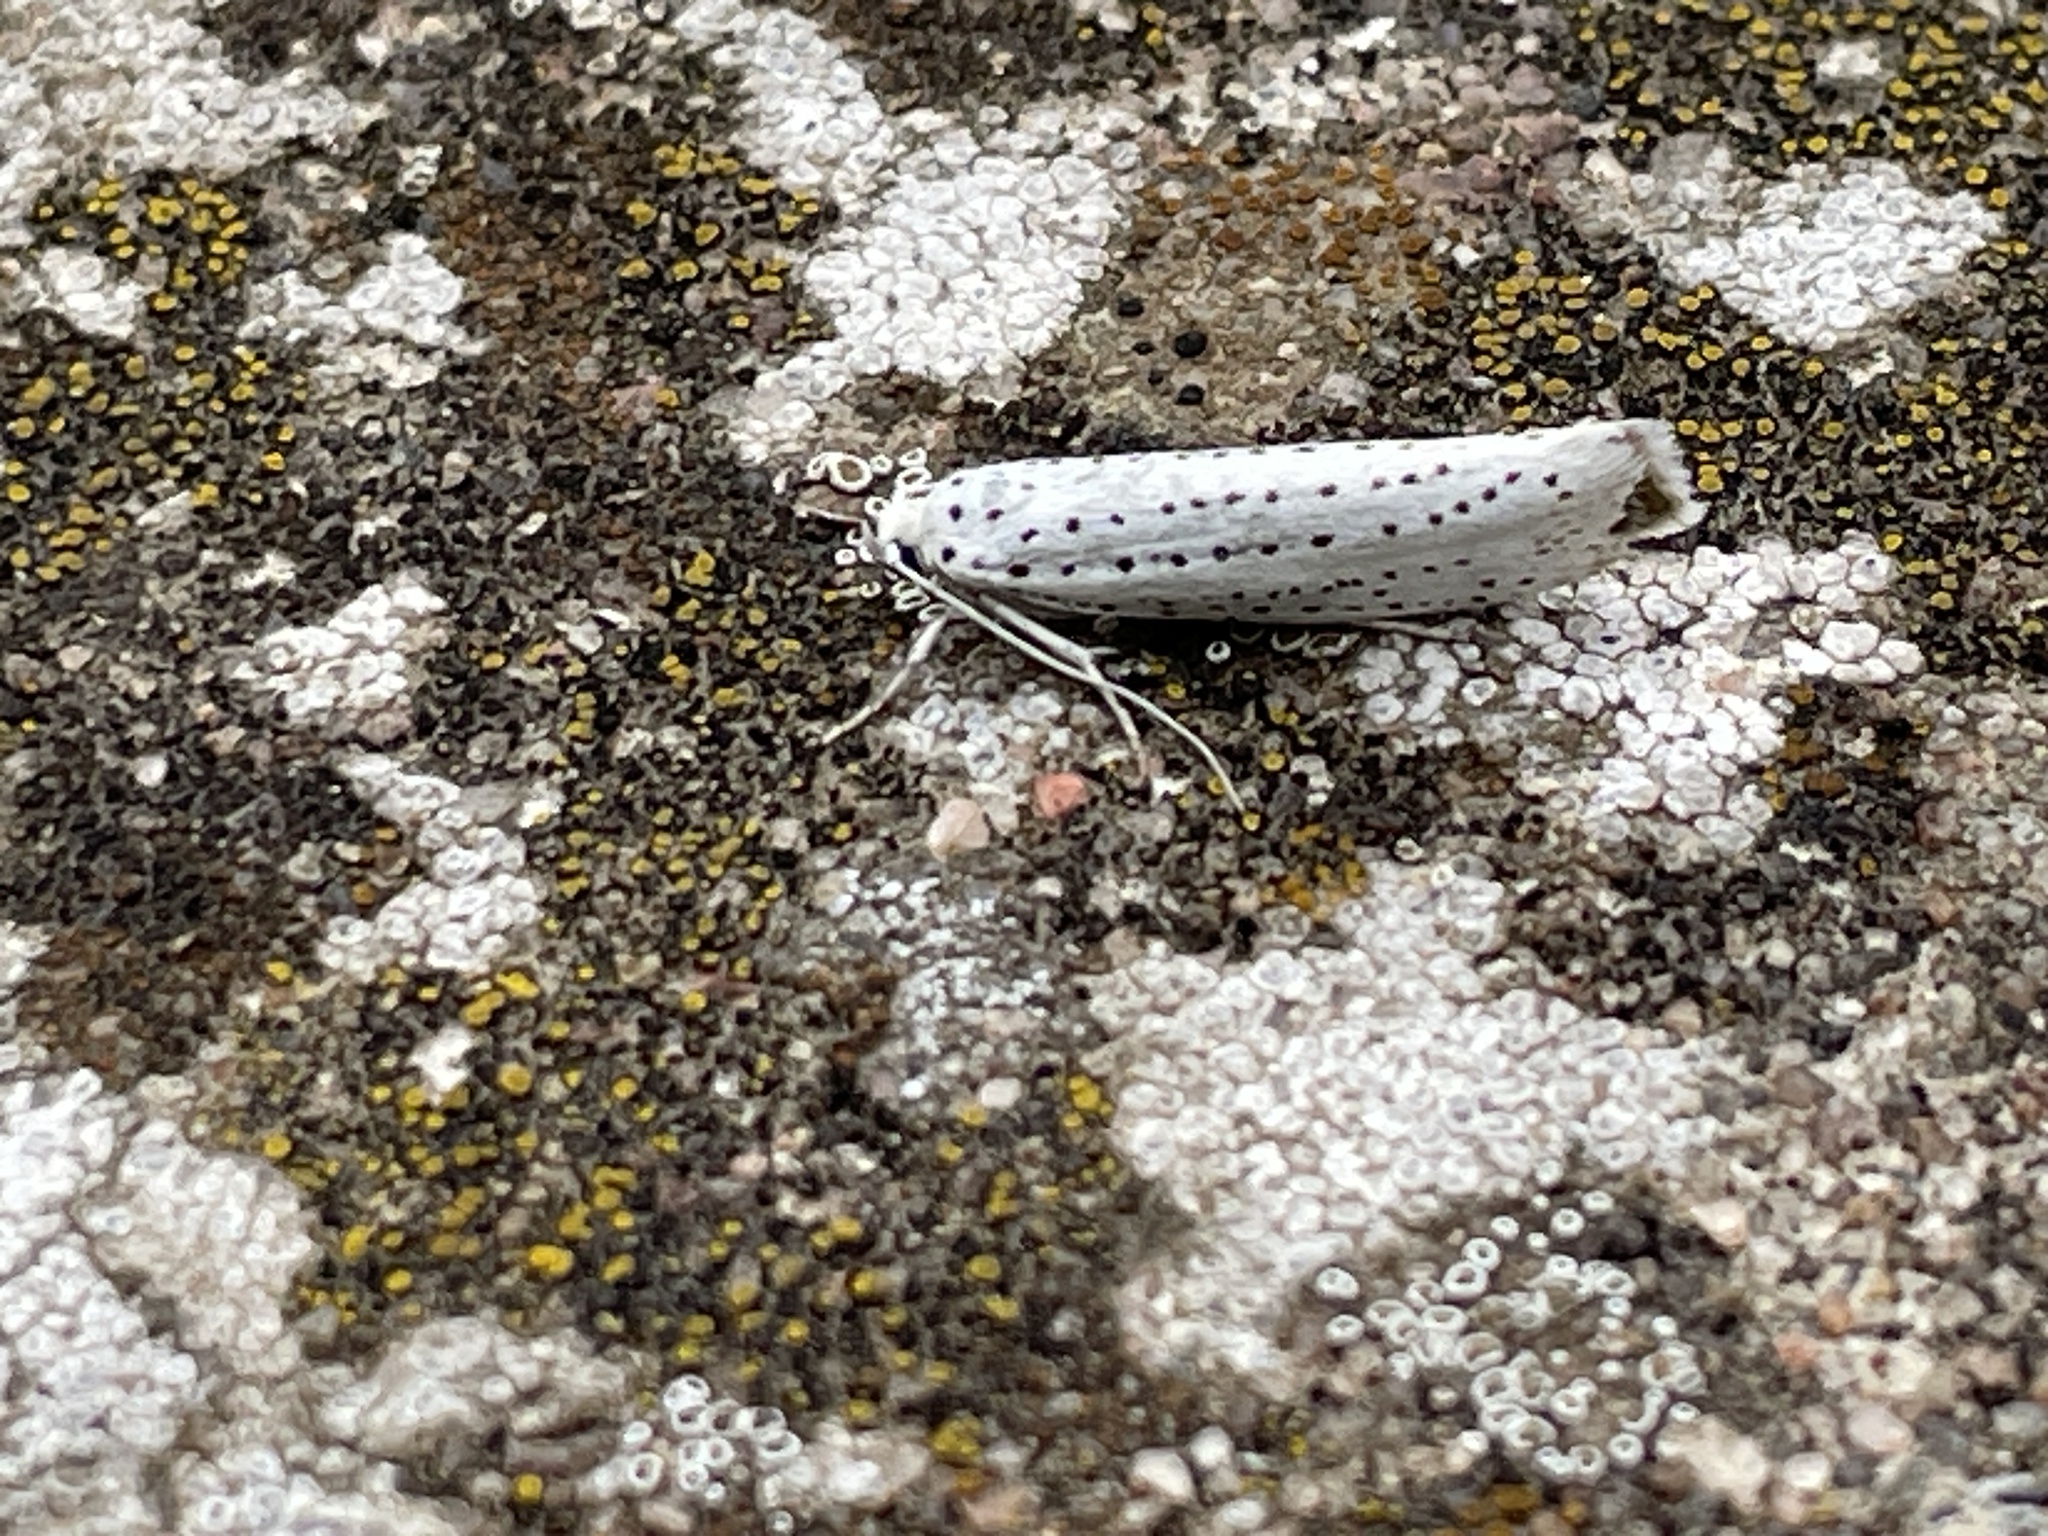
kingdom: Animalia
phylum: Arthropoda
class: Insecta
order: Lepidoptera
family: Yponomeutidae
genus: Yponomeuta
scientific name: Yponomeuta evonymella
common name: Bird-cherry ermine
